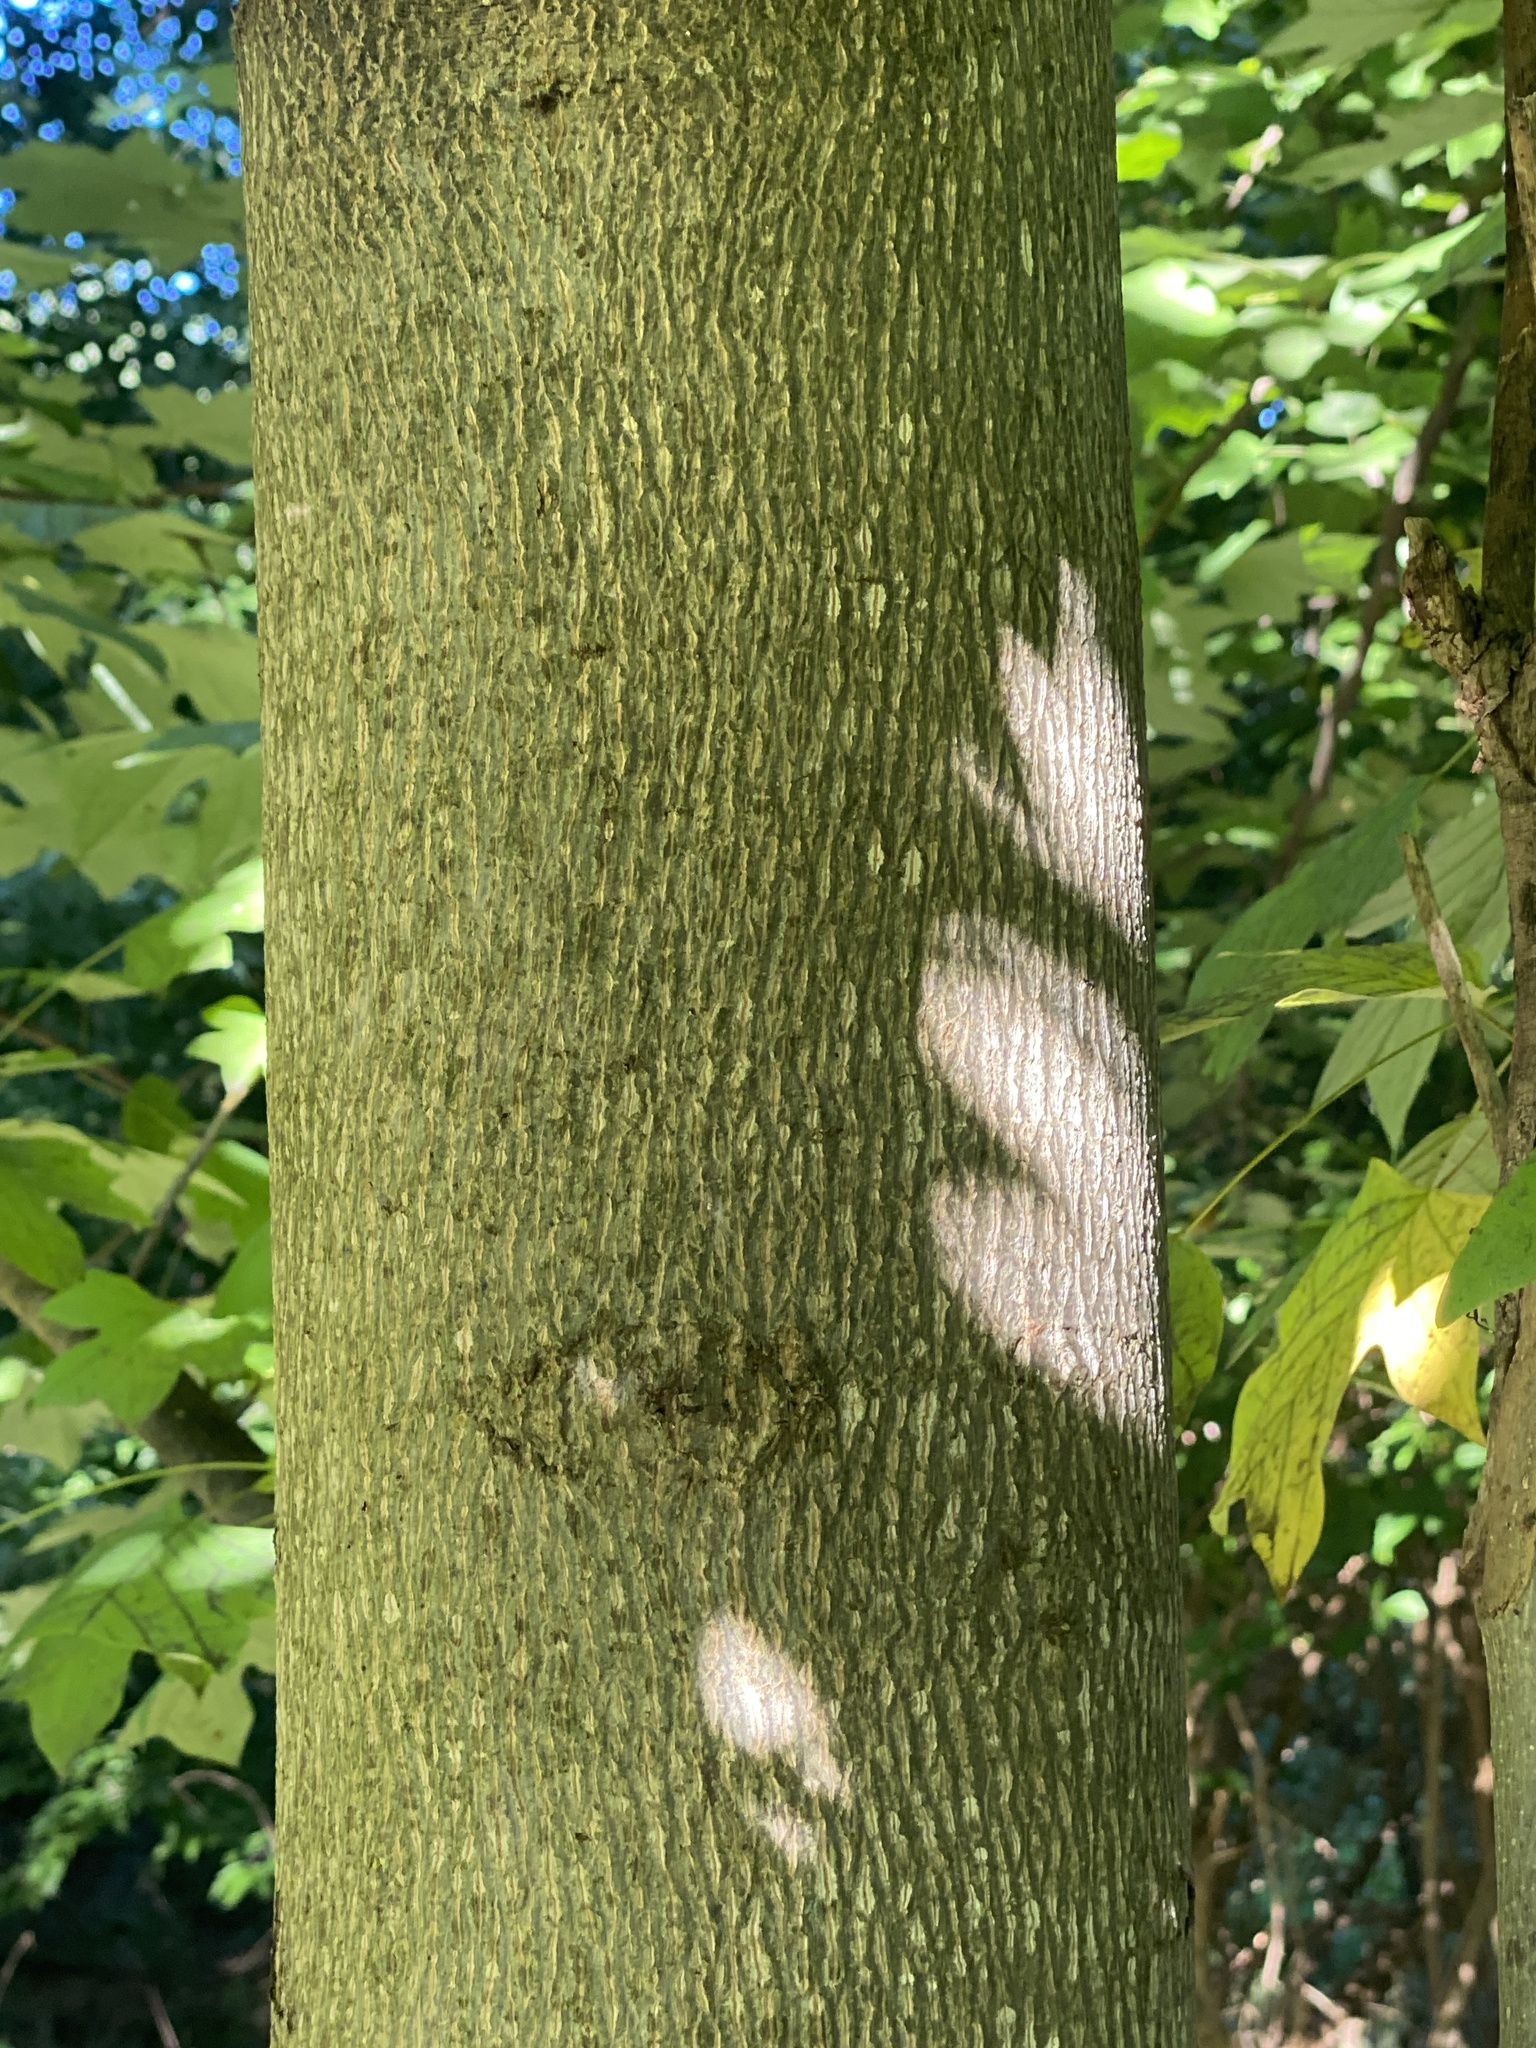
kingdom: Plantae
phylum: Tracheophyta
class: Magnoliopsida
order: Magnoliales
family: Magnoliaceae
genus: Liriodendron
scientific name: Liriodendron tulipifera
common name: Tulip tree
